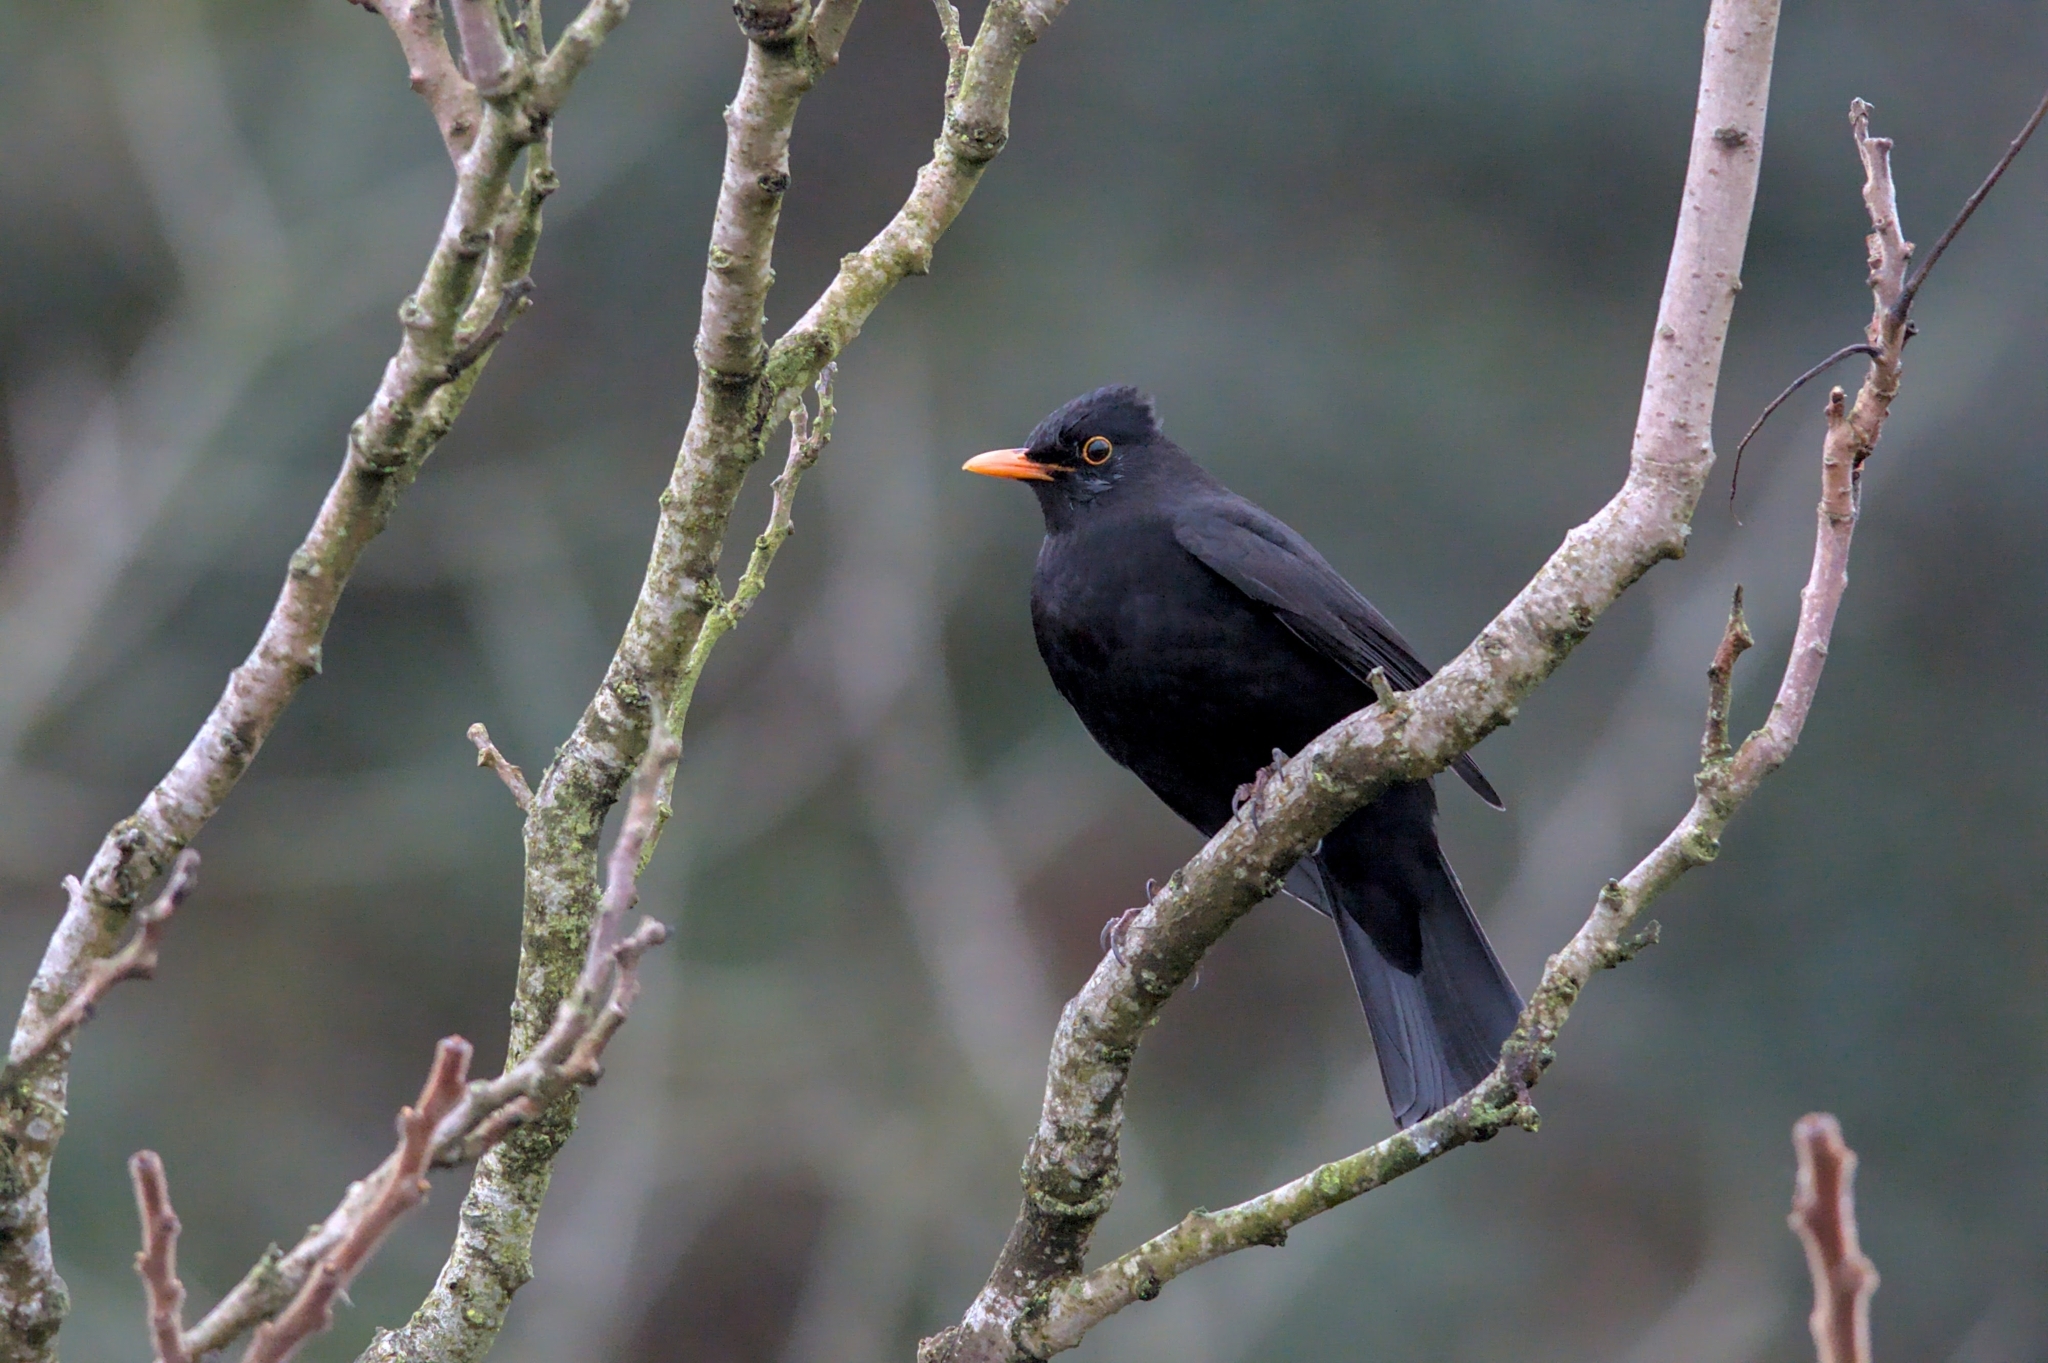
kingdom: Animalia
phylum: Chordata
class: Aves
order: Passeriformes
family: Turdidae
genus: Turdus
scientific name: Turdus merula
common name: Common blackbird
